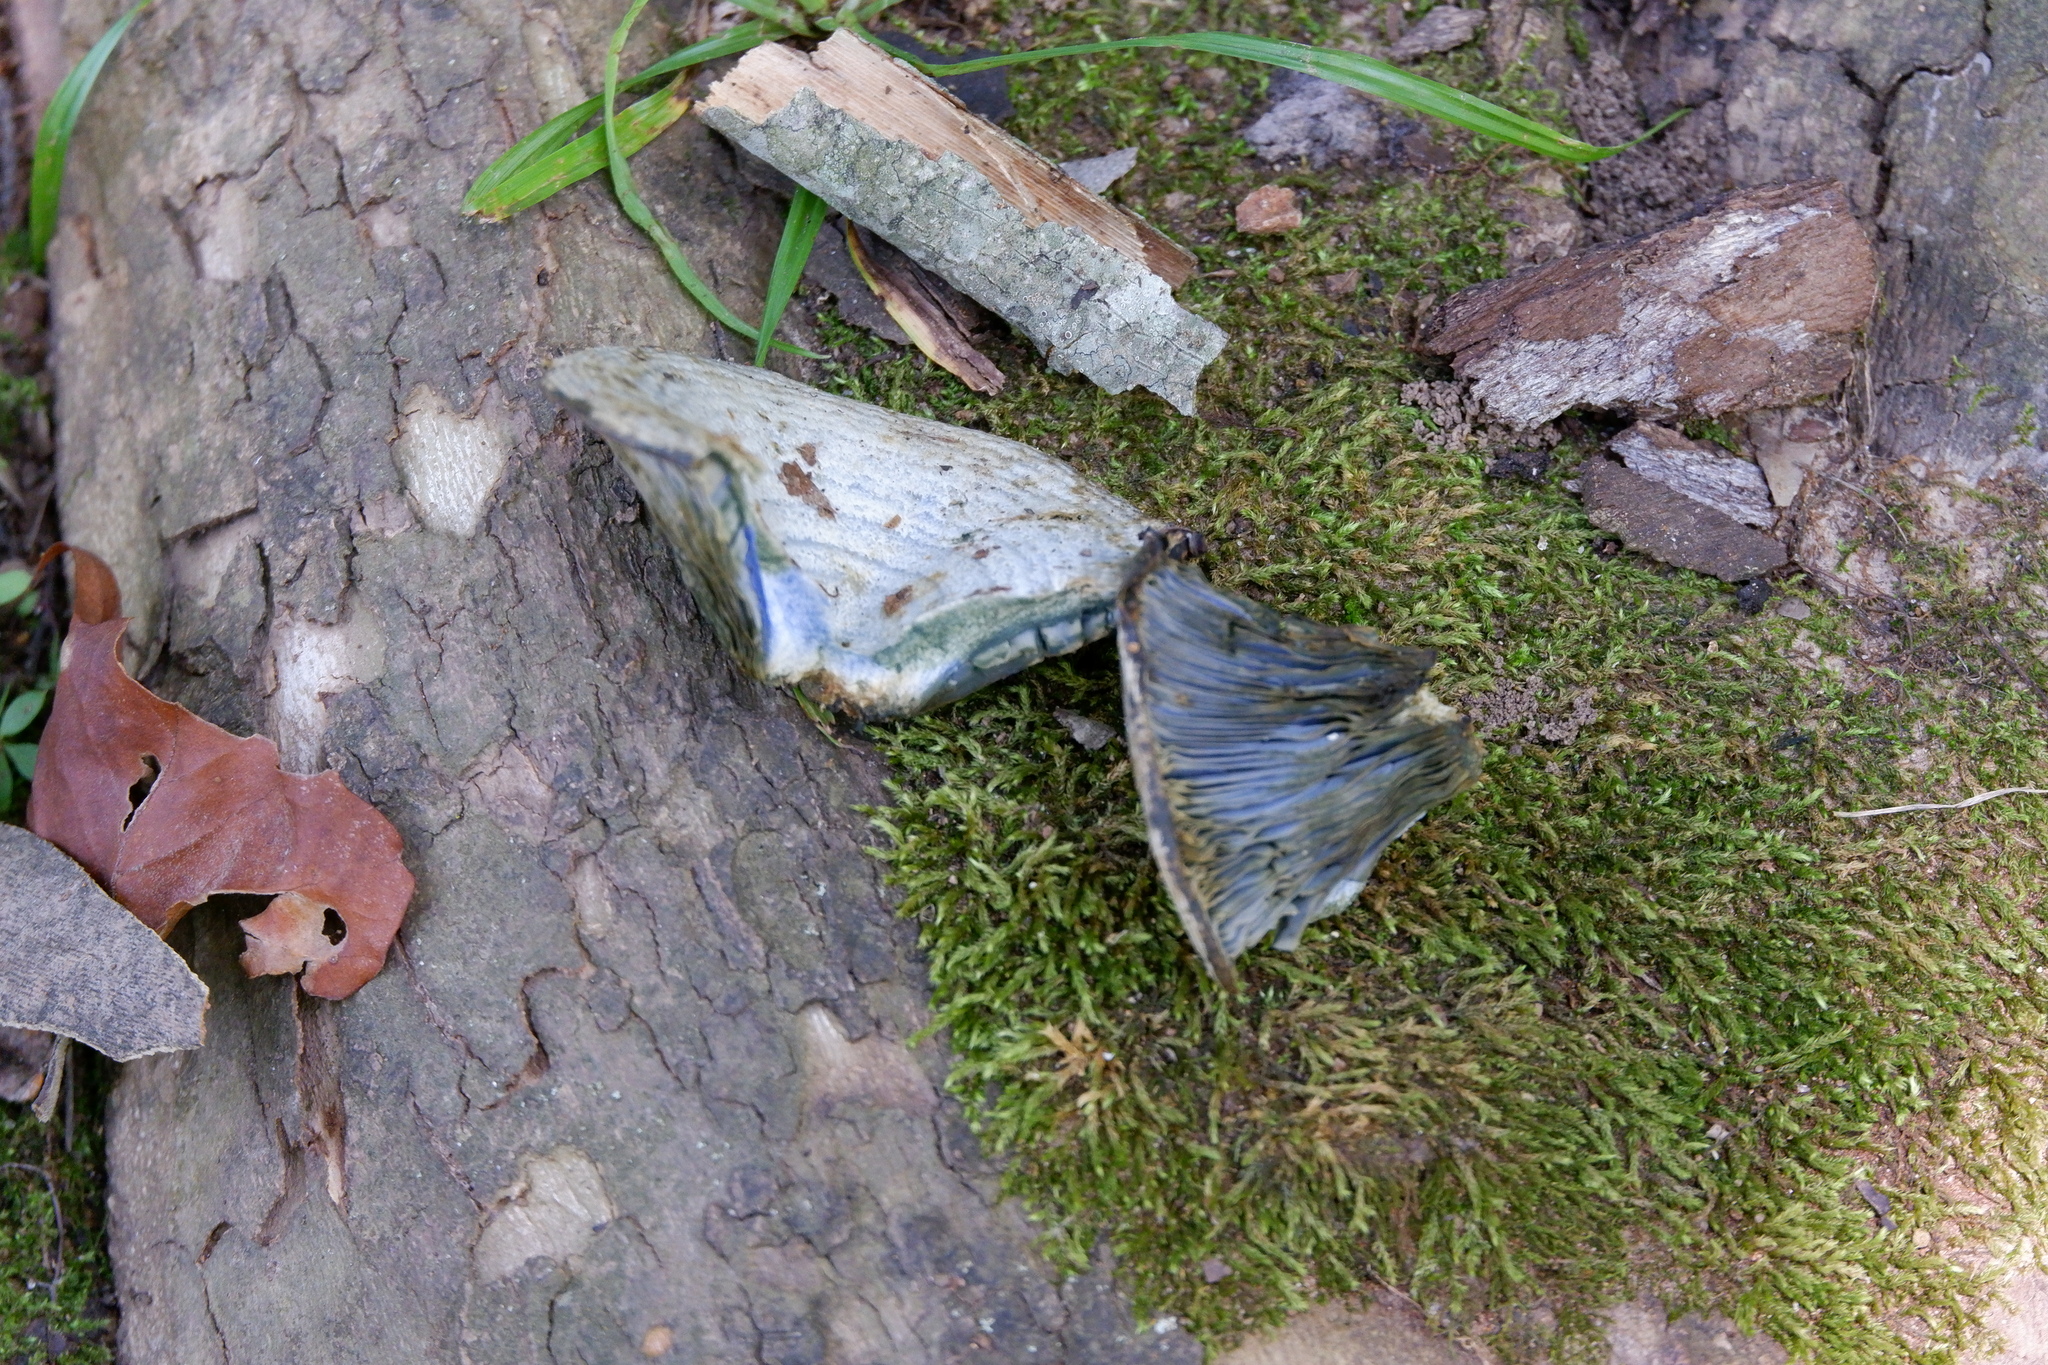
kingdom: Fungi
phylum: Basidiomycota
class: Agaricomycetes
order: Russulales
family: Russulaceae
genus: Lactarius
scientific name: Lactarius indigo
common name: Indigo milk cap
